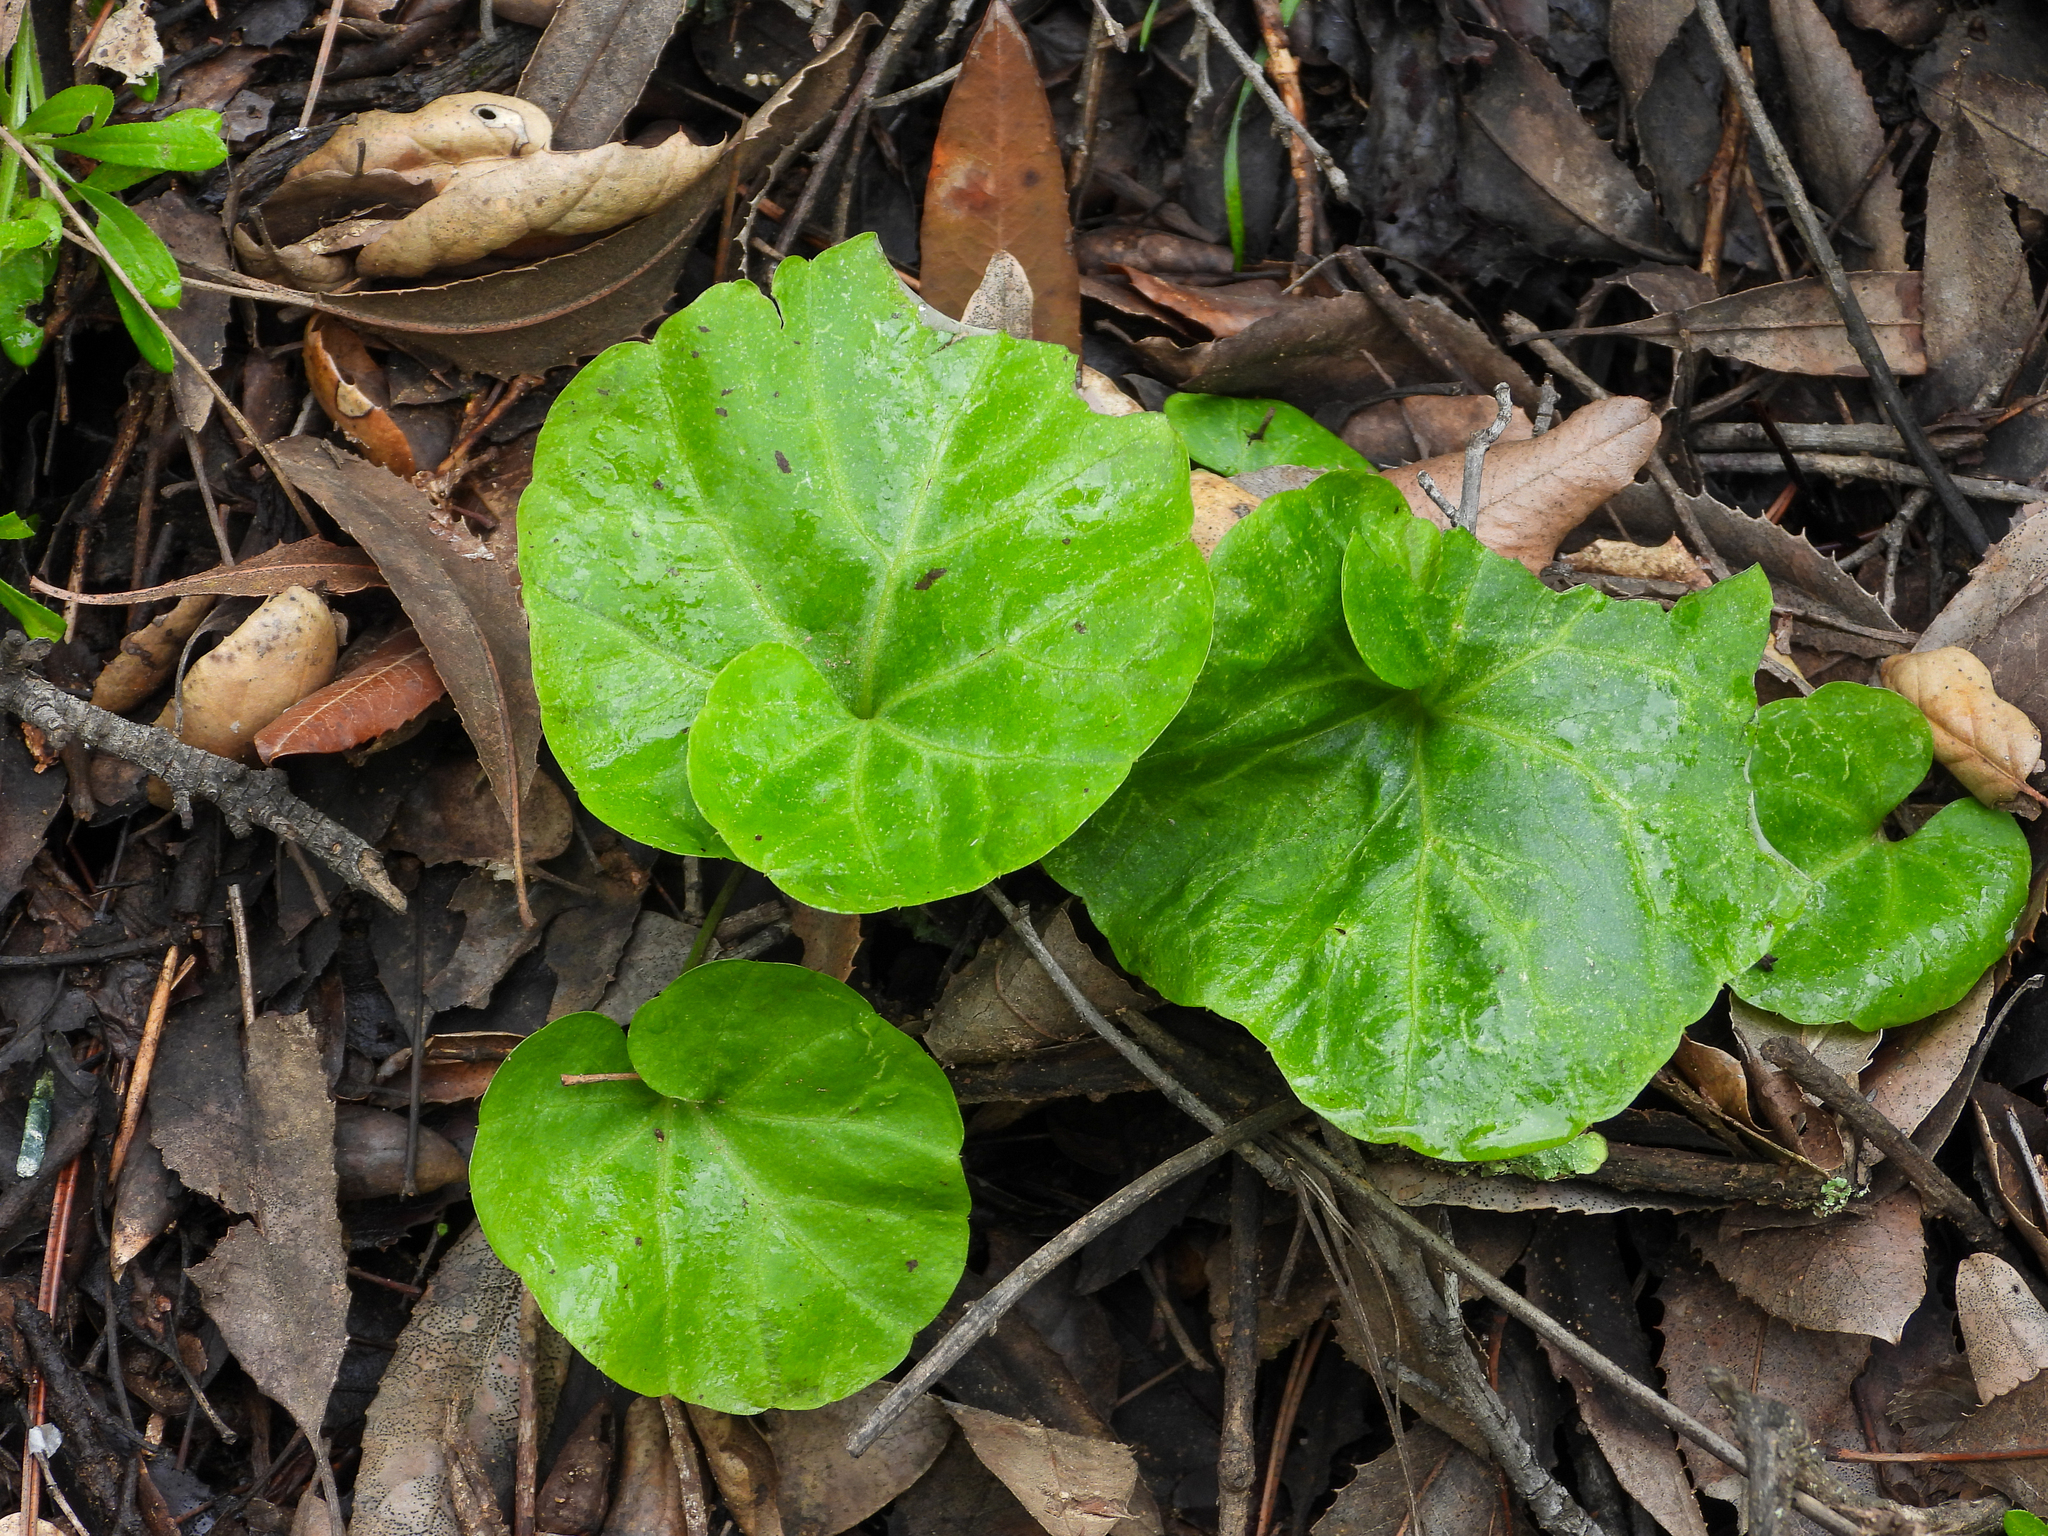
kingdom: Plantae
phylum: Tracheophyta
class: Magnoliopsida
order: Brassicales
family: Brassicaceae
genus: Cardamine
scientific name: Cardamine californica
